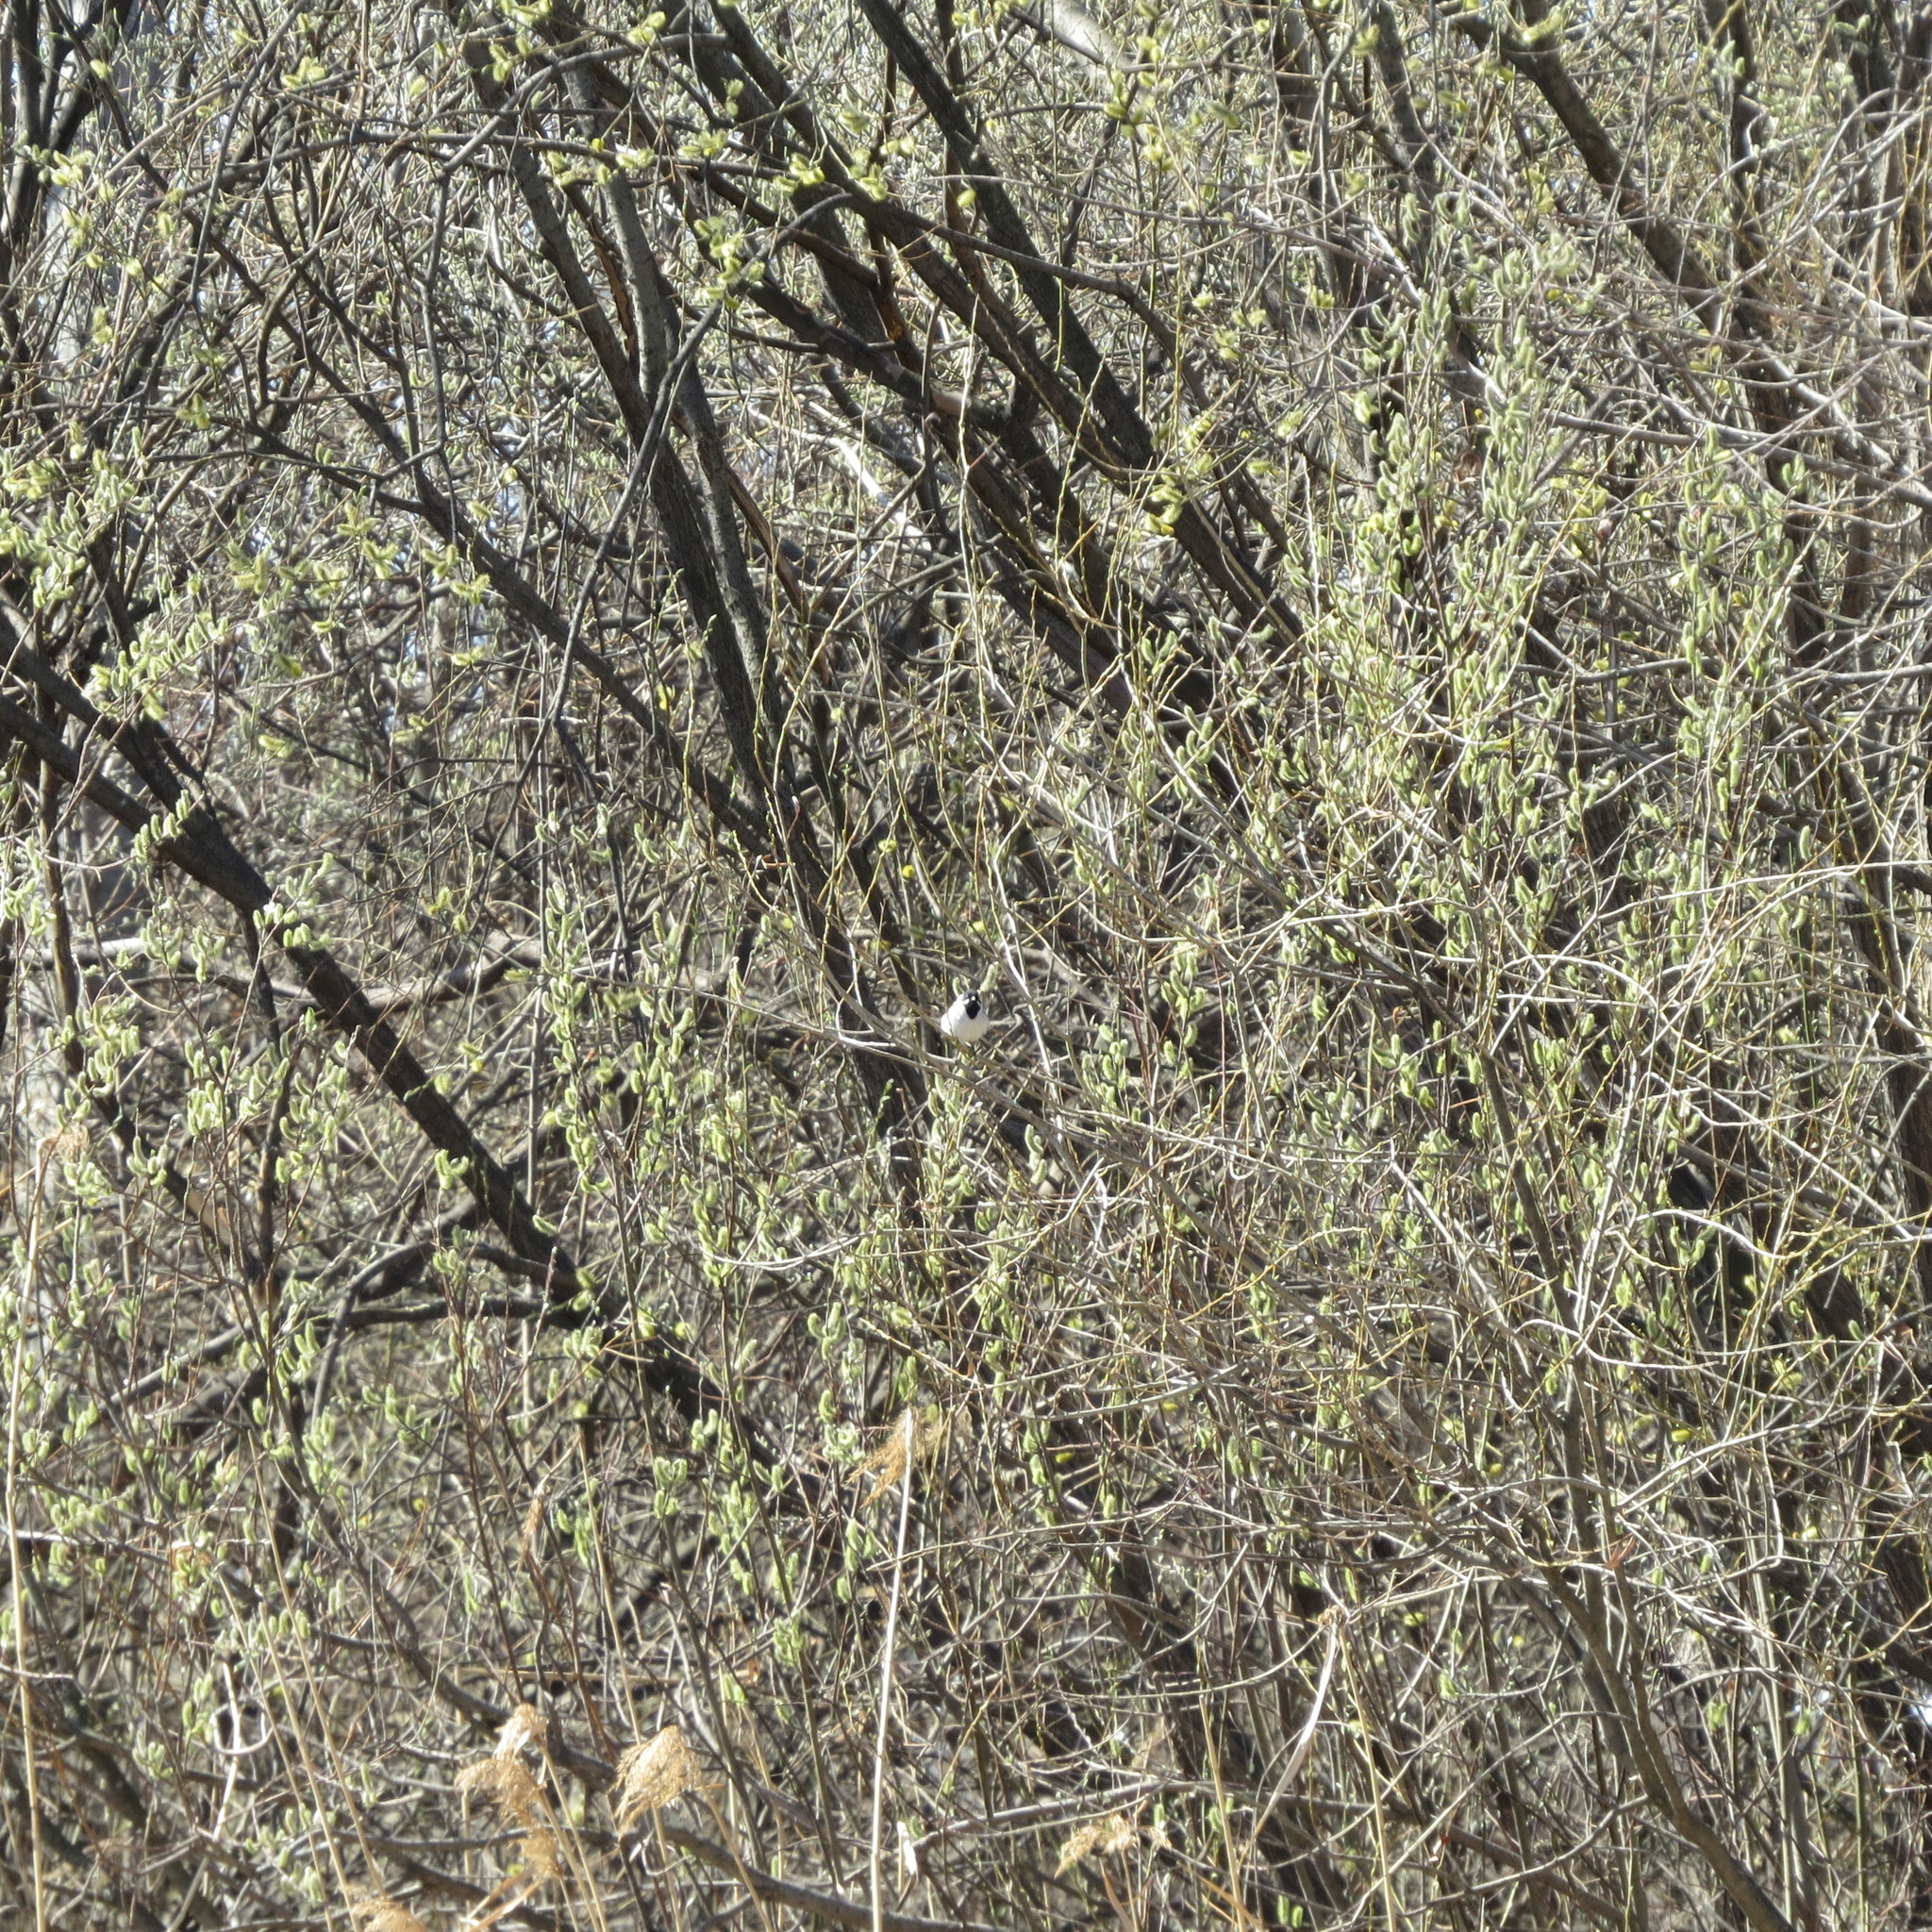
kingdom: Animalia
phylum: Chordata
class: Aves
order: Passeriformes
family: Emberizidae
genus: Emberiza
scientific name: Emberiza schoeniclus
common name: Reed bunting
